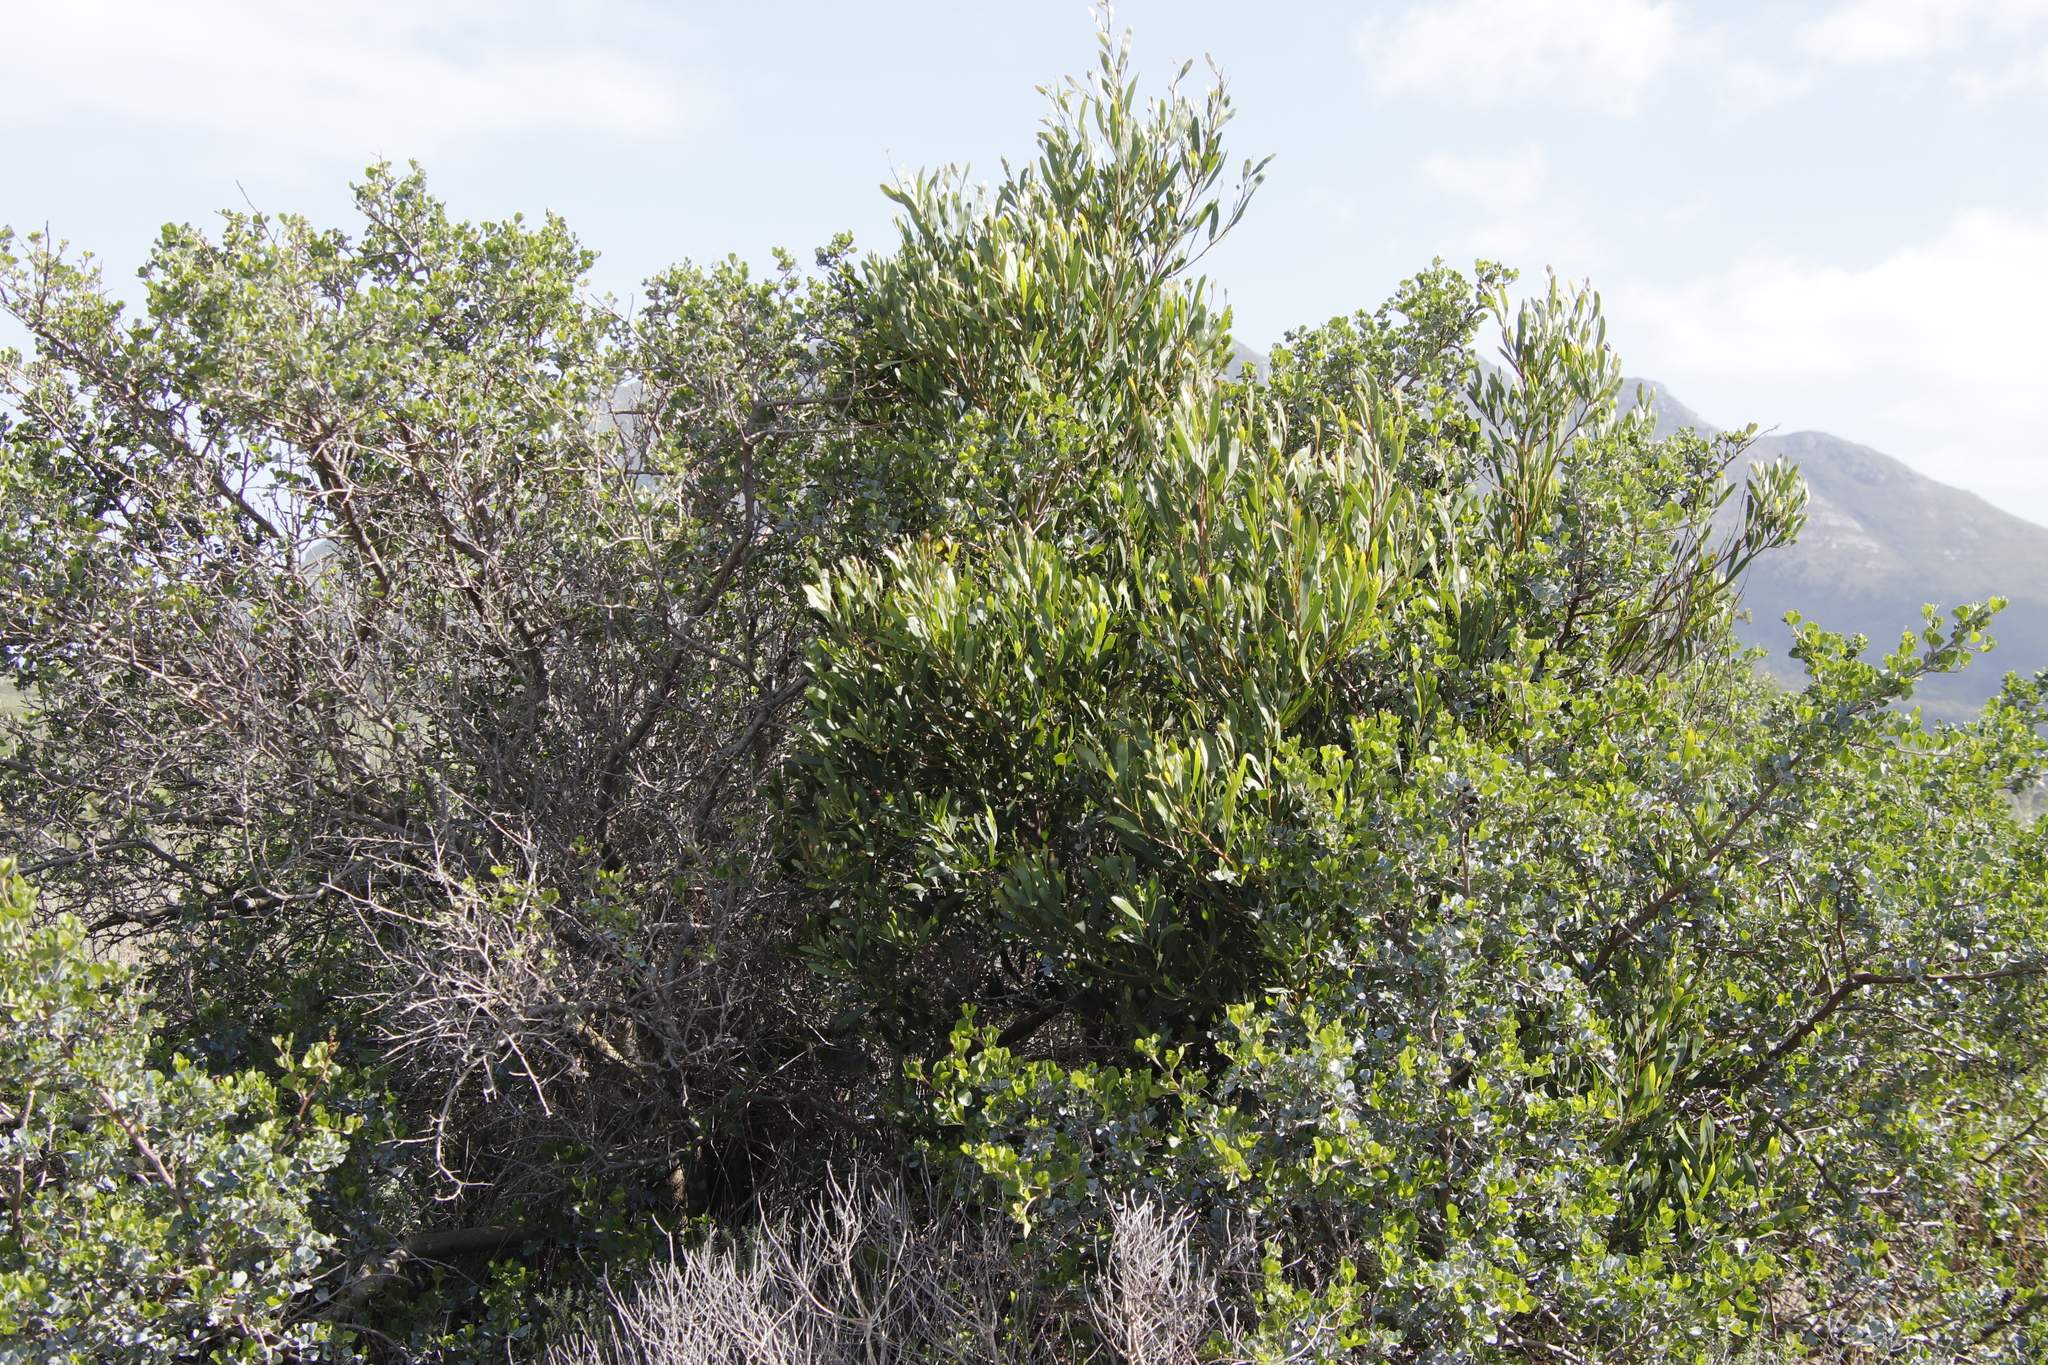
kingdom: Plantae
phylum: Tracheophyta
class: Magnoliopsida
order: Fabales
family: Fabaceae
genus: Acacia
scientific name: Acacia cyclops
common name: Coastal wattle
